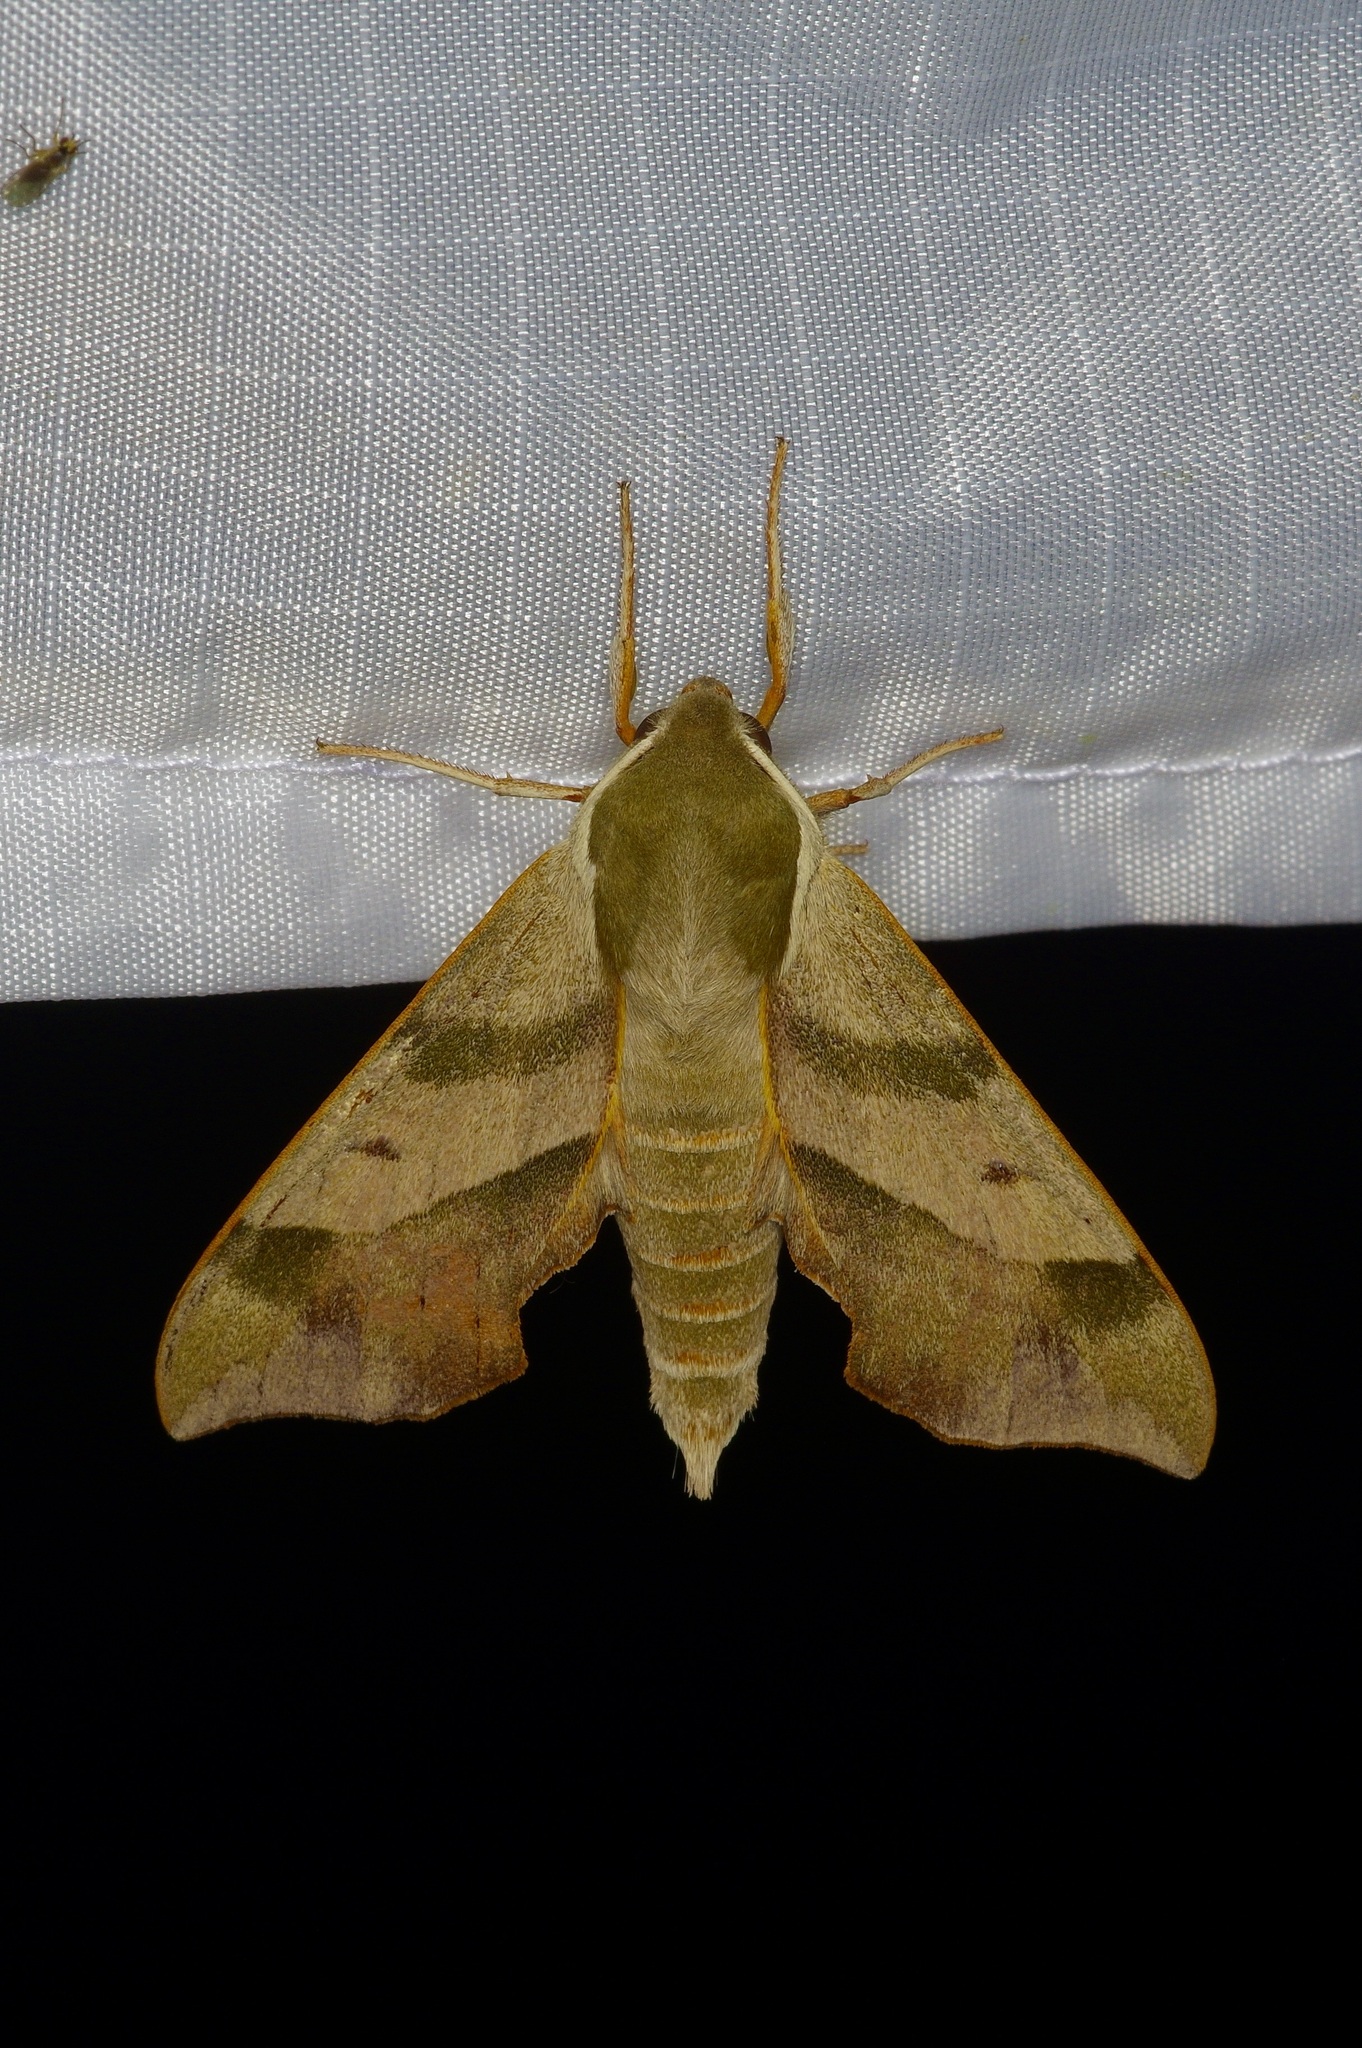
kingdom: Animalia
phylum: Arthropoda
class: Insecta
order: Lepidoptera
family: Sphingidae
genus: Darapsa
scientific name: Darapsa myron
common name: Hog sphinx
